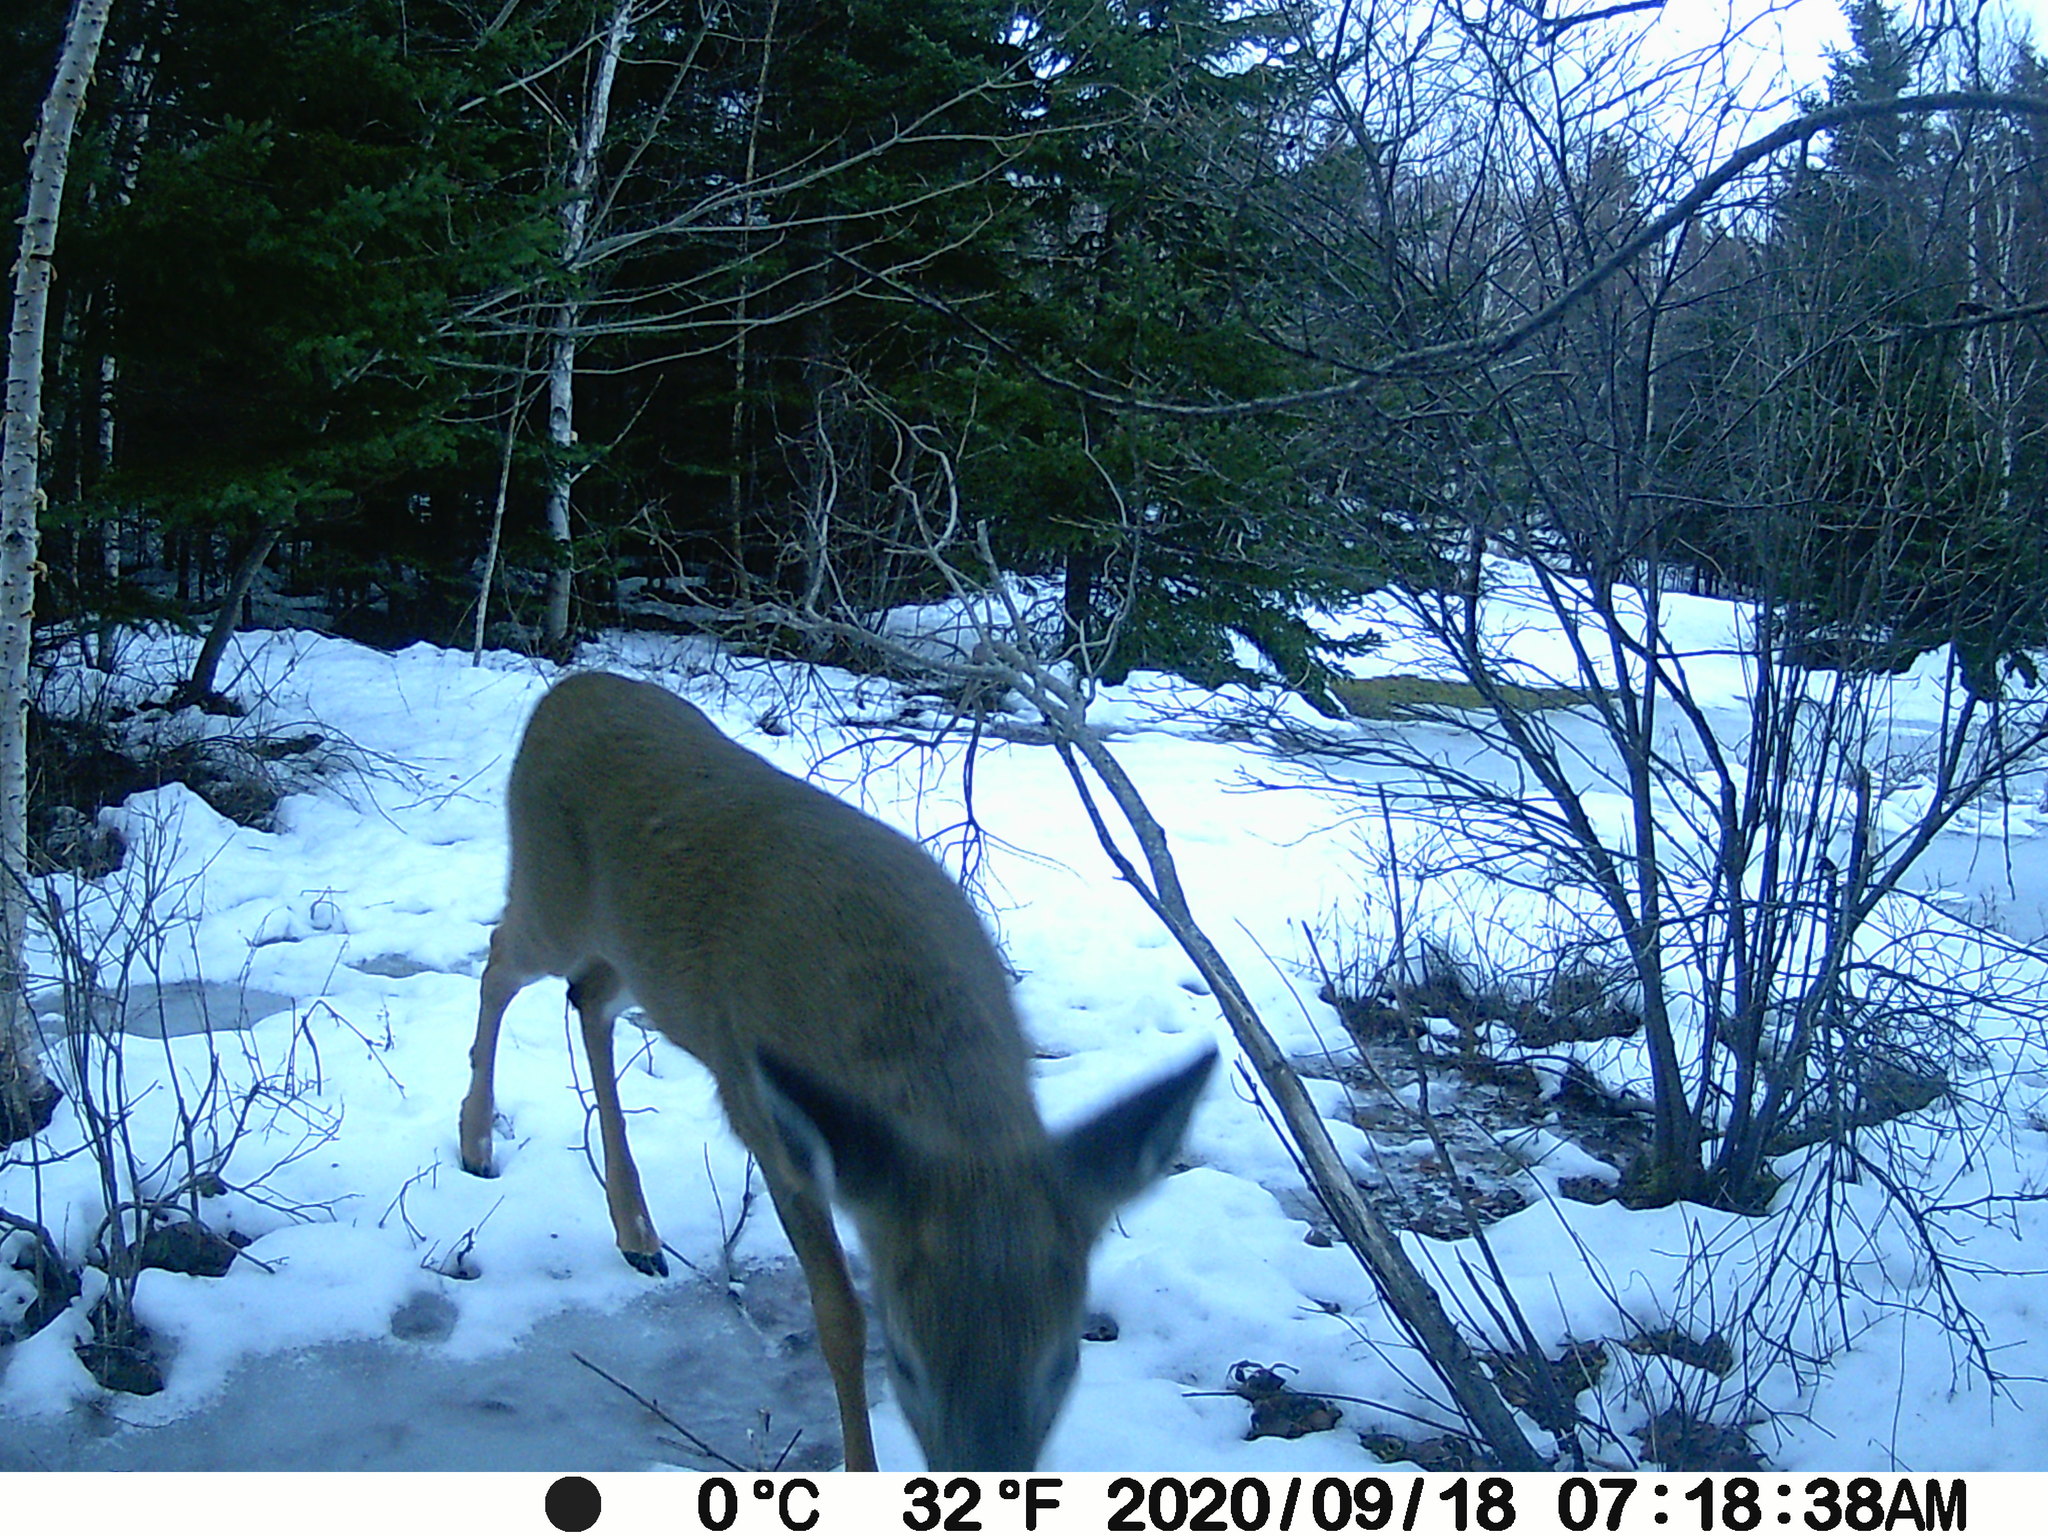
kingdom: Animalia
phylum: Chordata
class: Mammalia
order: Artiodactyla
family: Cervidae
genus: Odocoileus
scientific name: Odocoileus virginianus
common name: White-tailed deer
